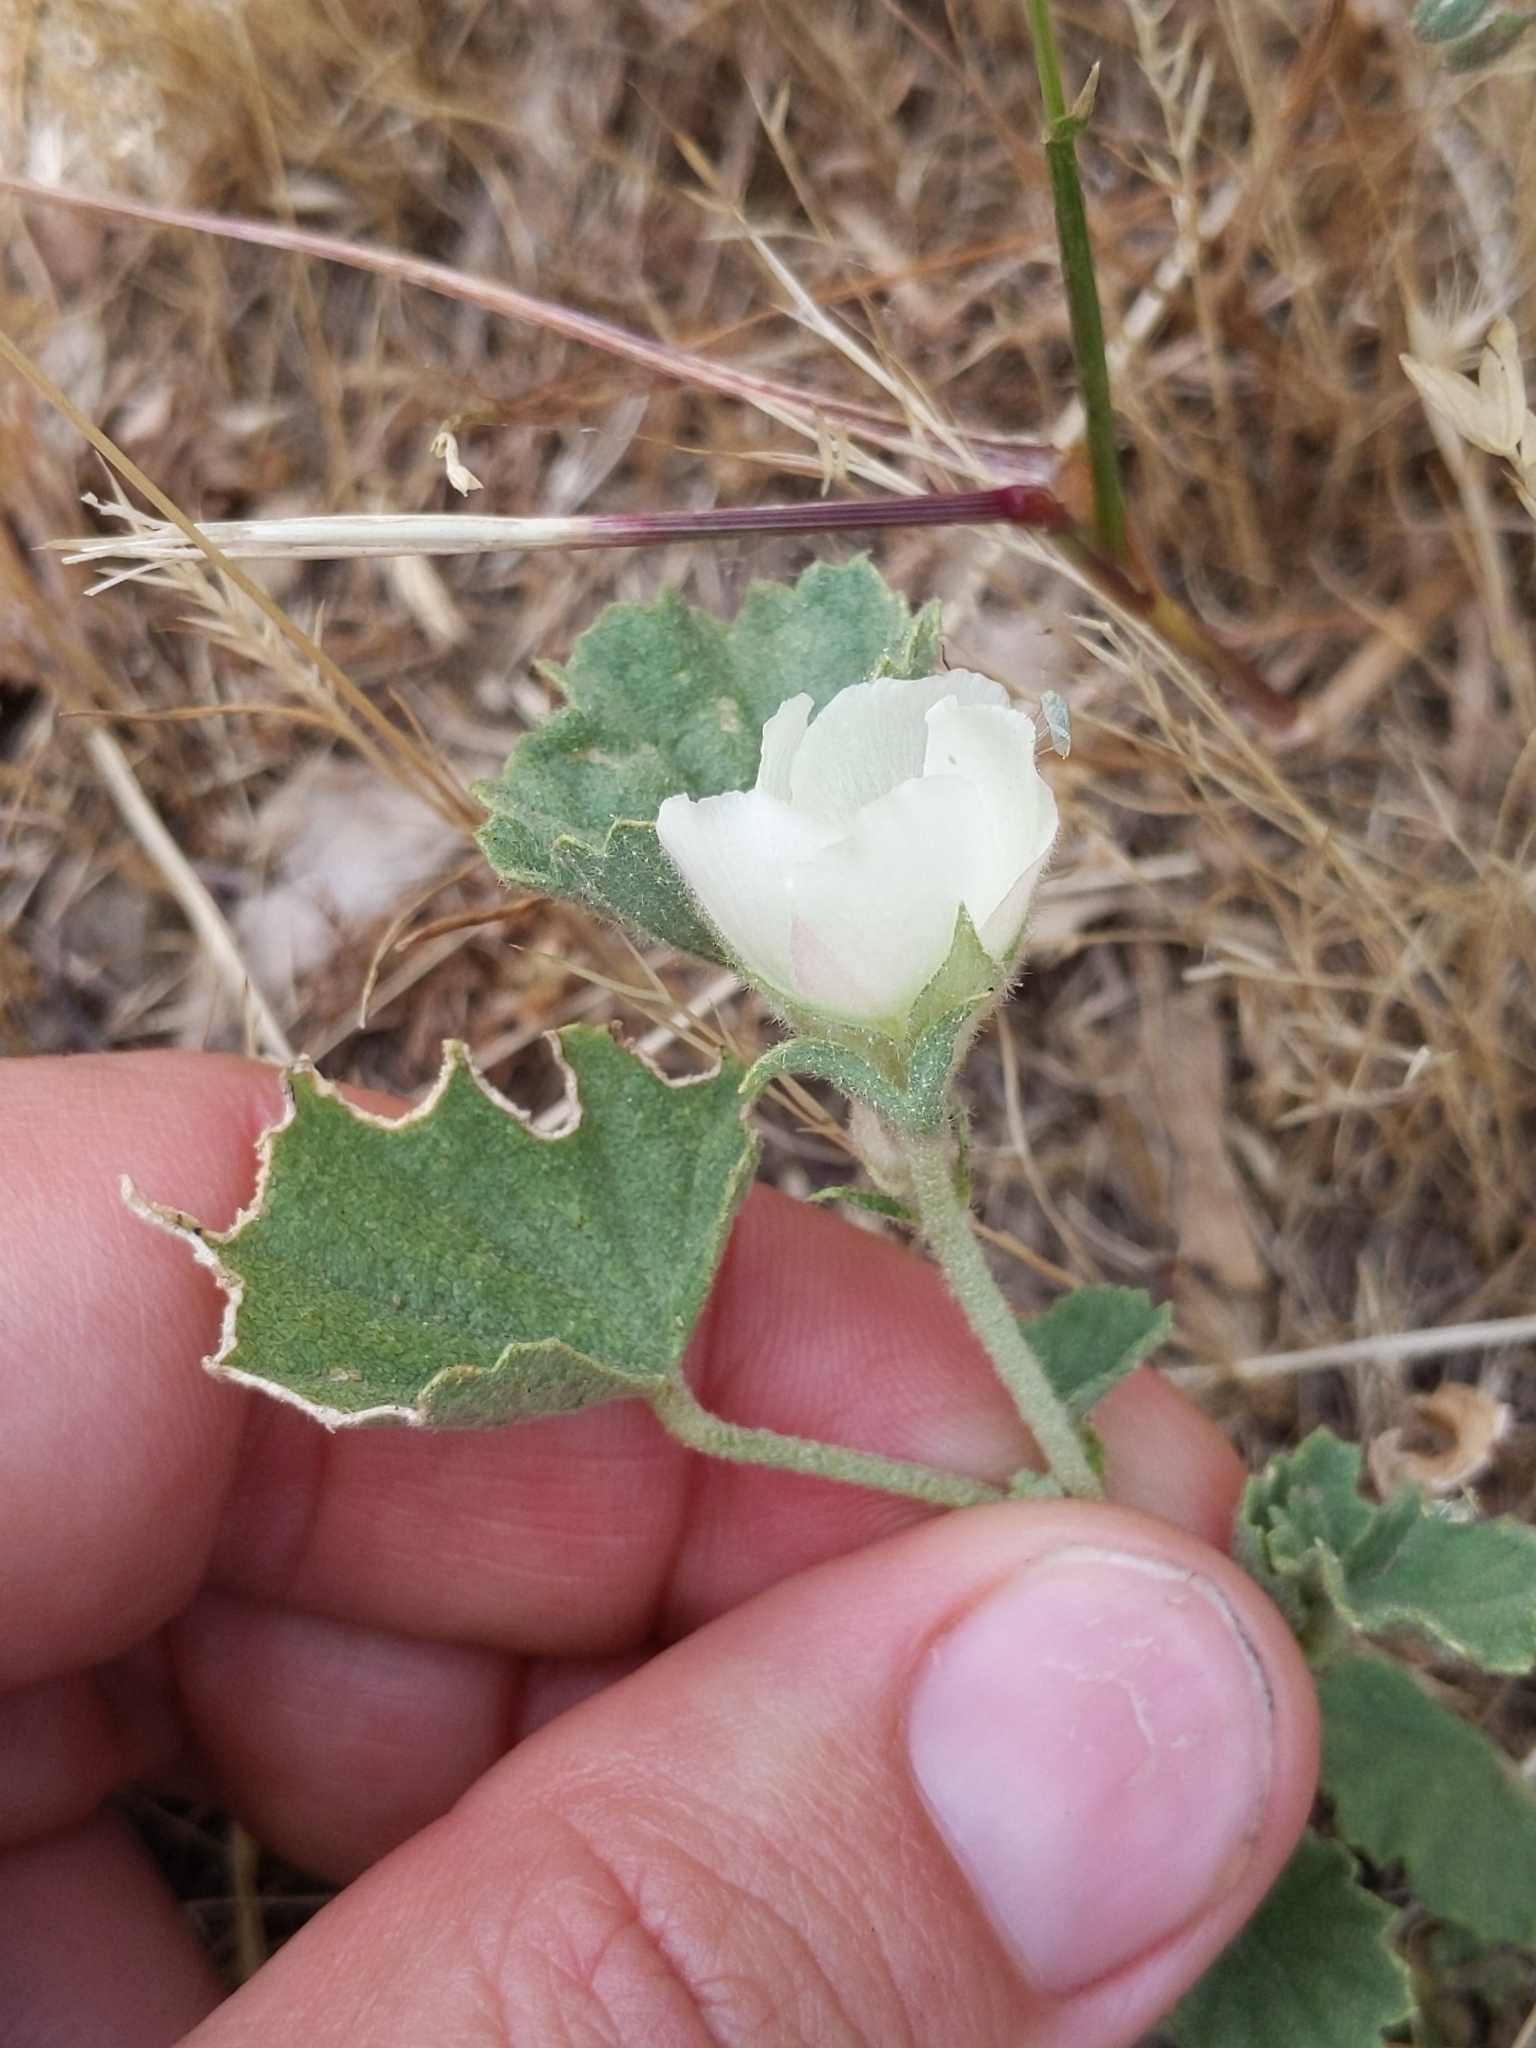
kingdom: Plantae
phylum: Tracheophyta
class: Magnoliopsida
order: Malvales
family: Malvaceae
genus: Malvella
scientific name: Malvella leprosa
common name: Alkali-mallow
